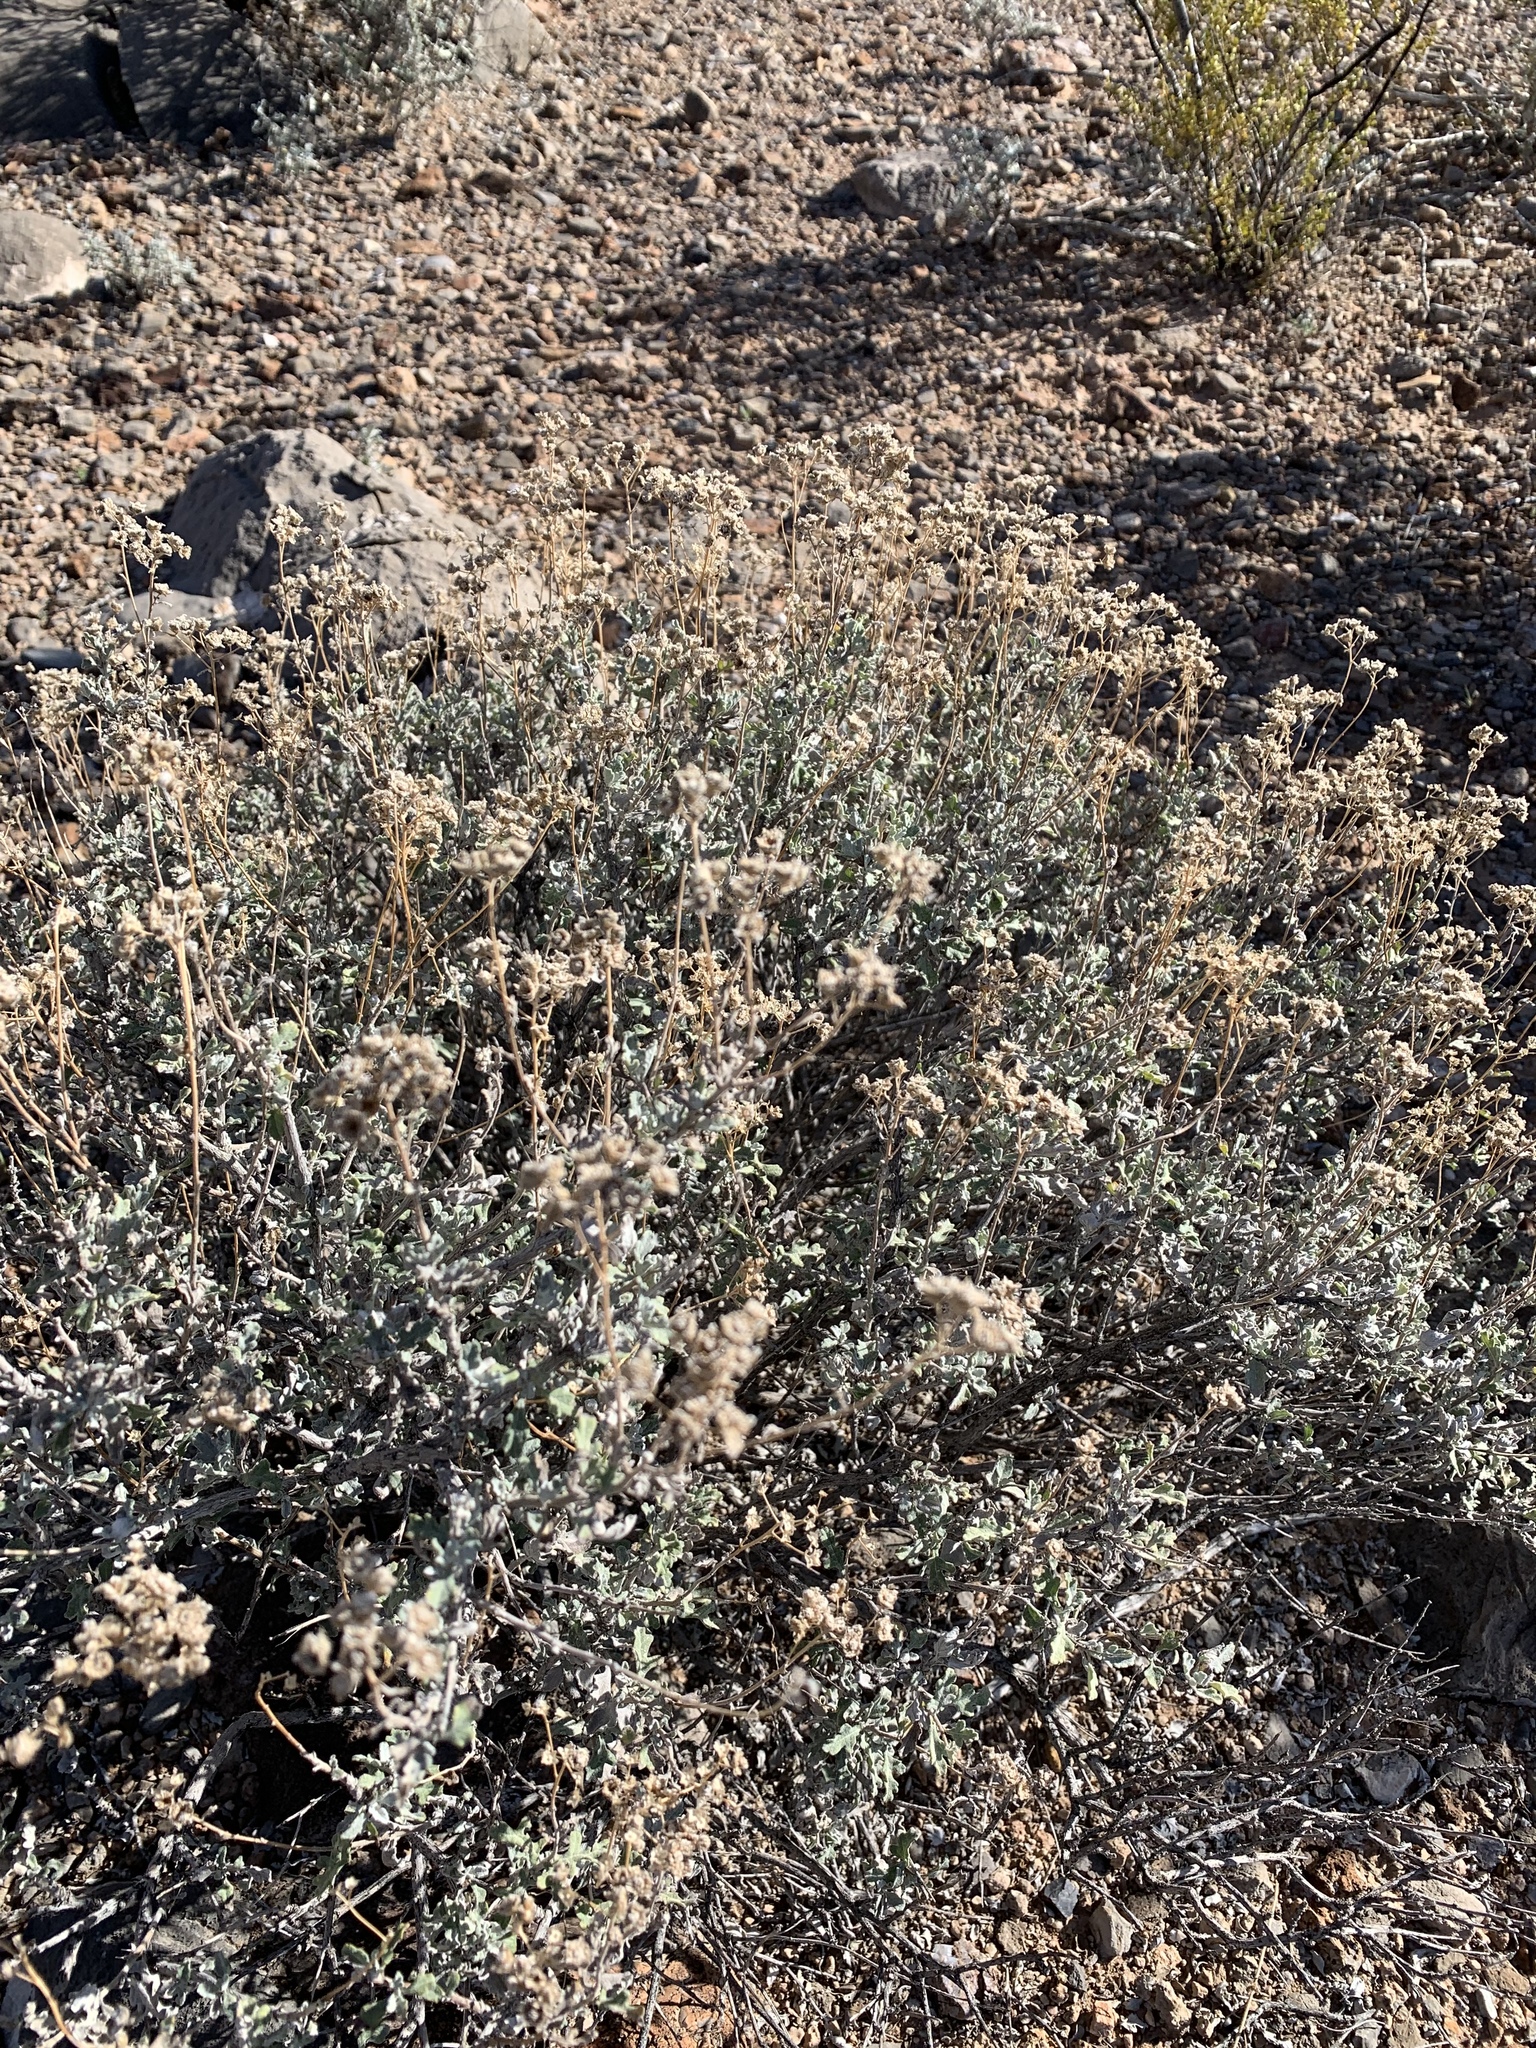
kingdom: Plantae
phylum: Tracheophyta
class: Magnoliopsida
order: Asterales
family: Asteraceae
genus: Parthenium
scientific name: Parthenium incanum
